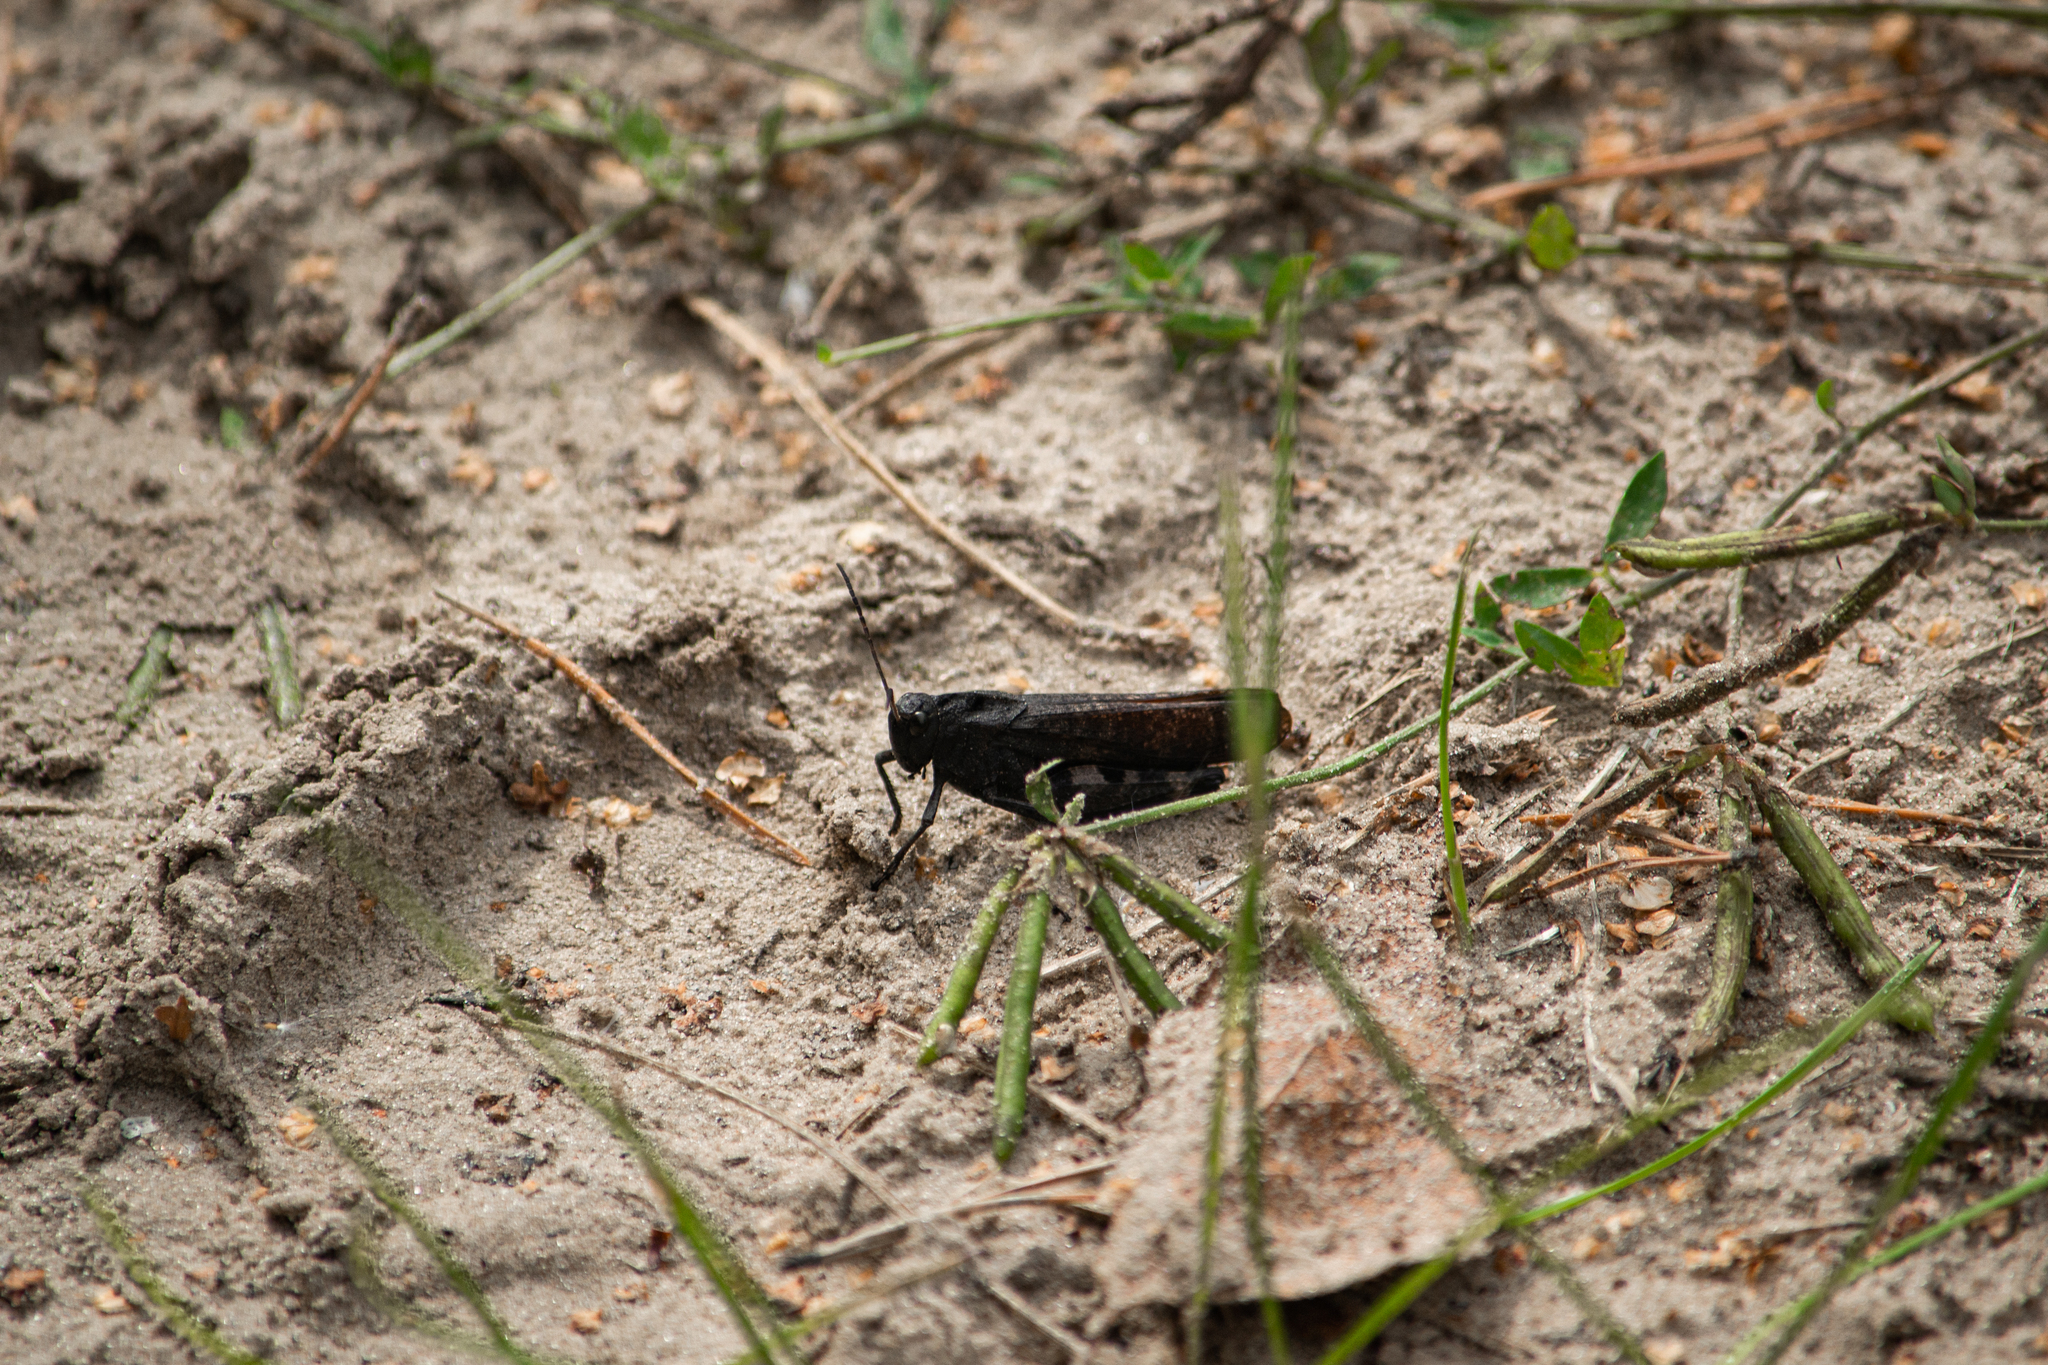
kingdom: Animalia
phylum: Arthropoda
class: Insecta
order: Orthoptera
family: Acrididae
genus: Psophus
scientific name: Psophus stridulus
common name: Rattle grasshopper
